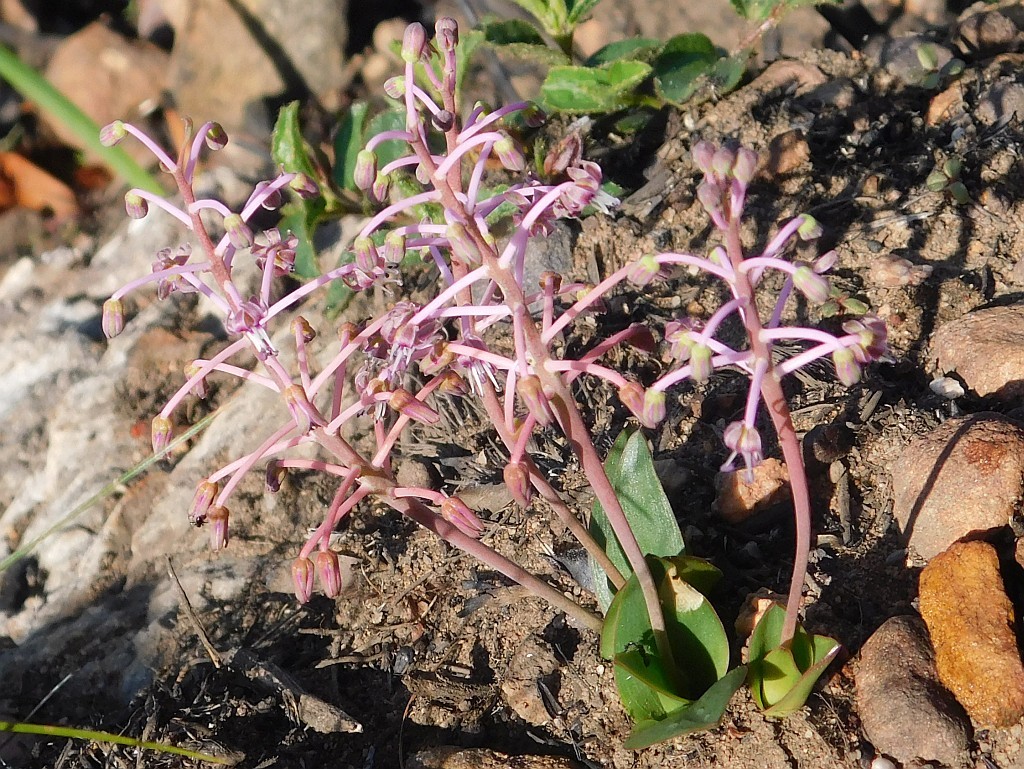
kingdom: Plantae
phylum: Tracheophyta
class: Liliopsida
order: Asparagales
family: Asparagaceae
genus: Ledebouria
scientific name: Ledebouria ovalifolia
